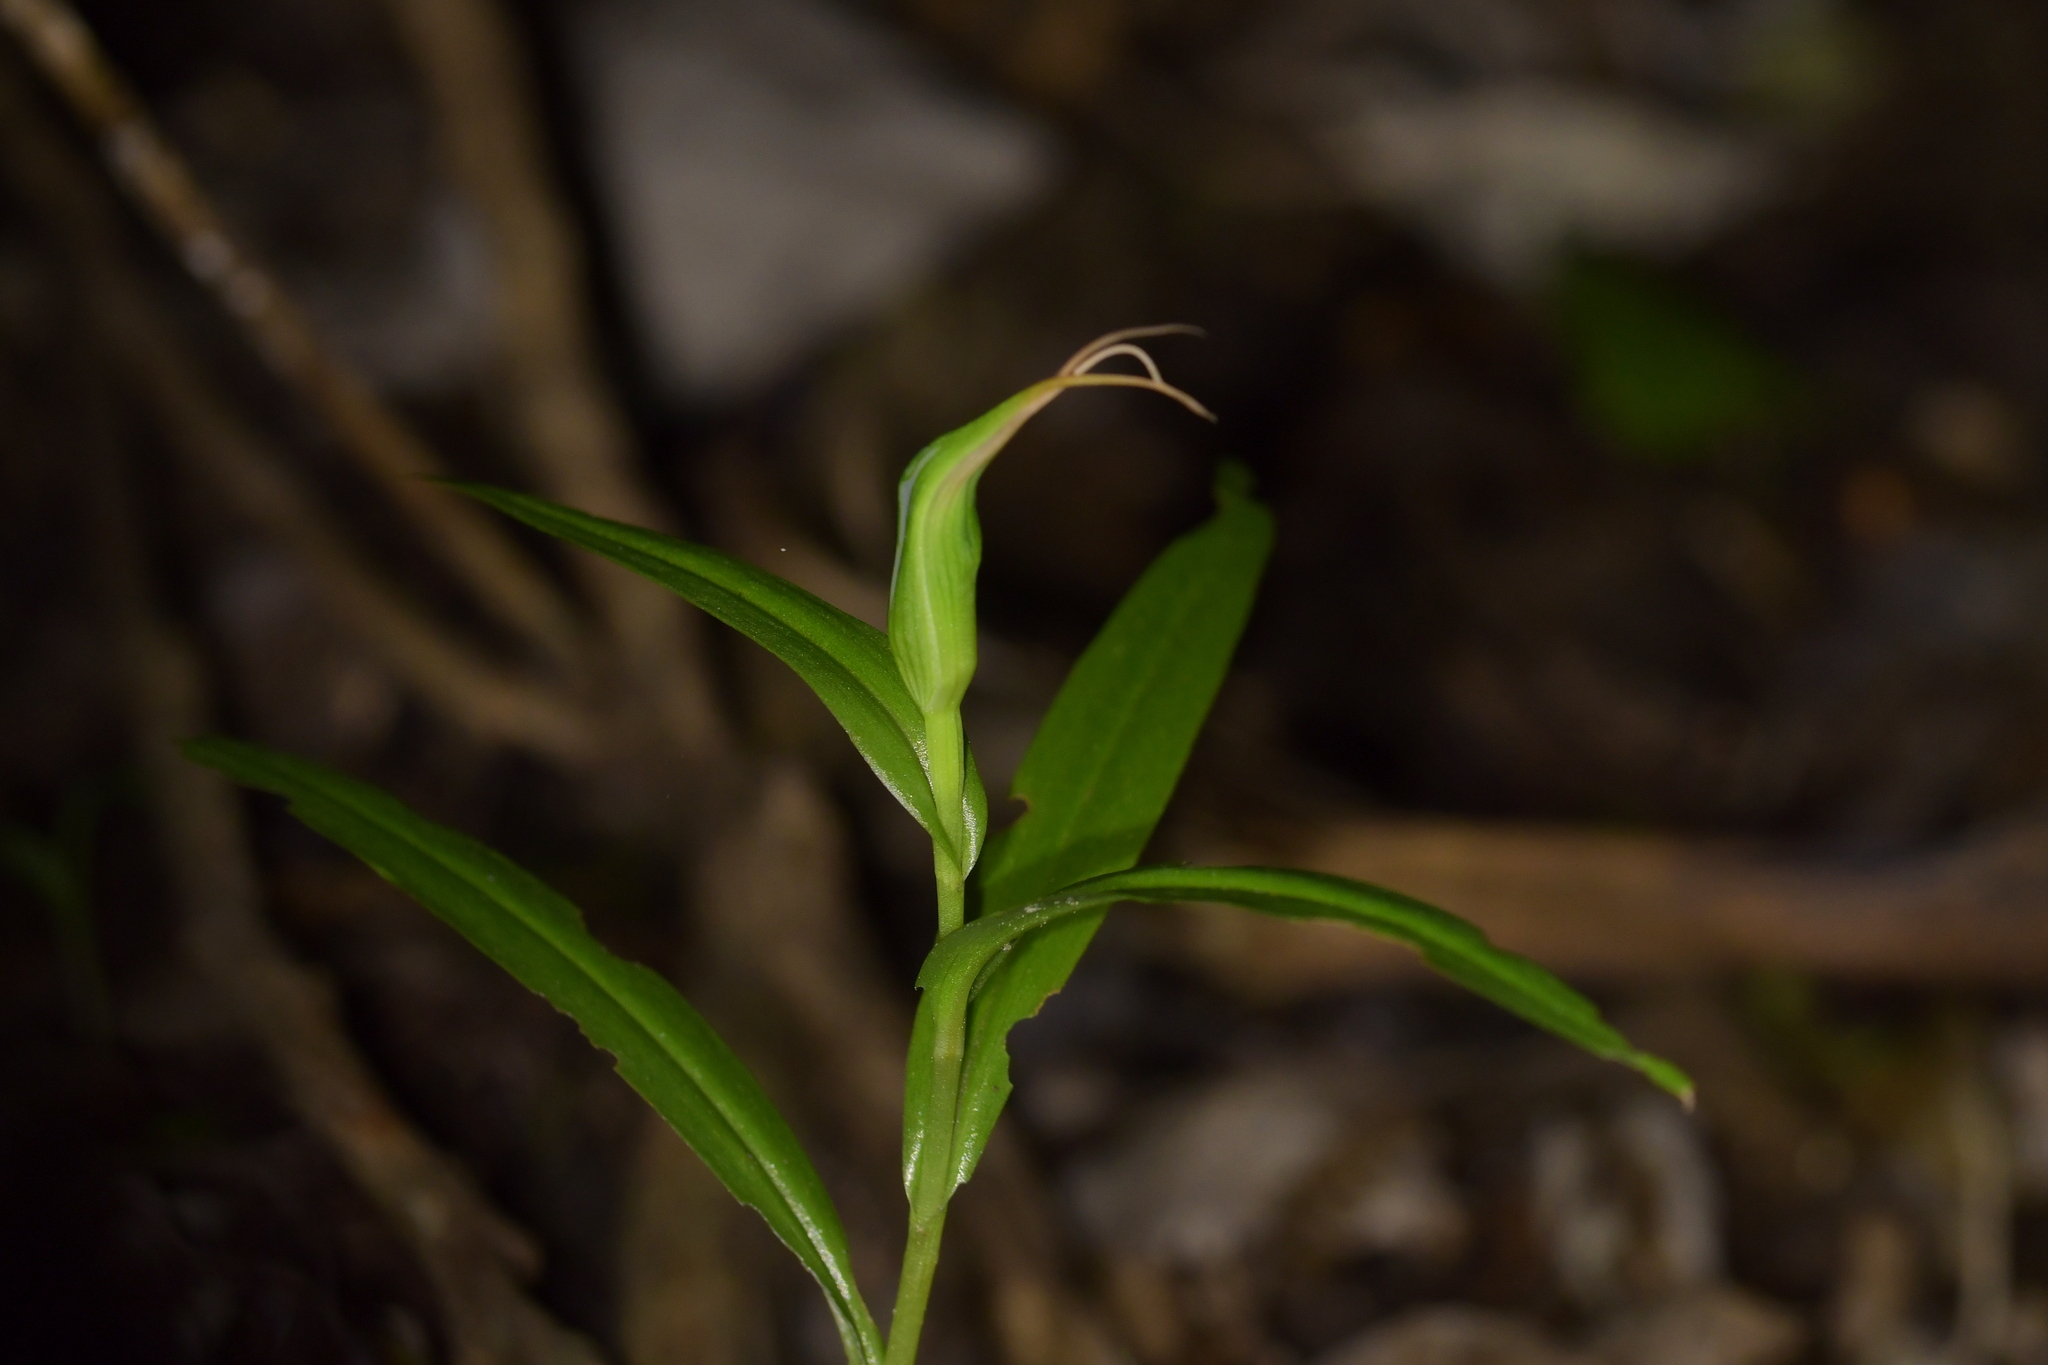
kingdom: Plantae
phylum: Tracheophyta
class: Liliopsida
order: Asparagales
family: Orchidaceae
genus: Pterostylis
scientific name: Pterostylis banksii
